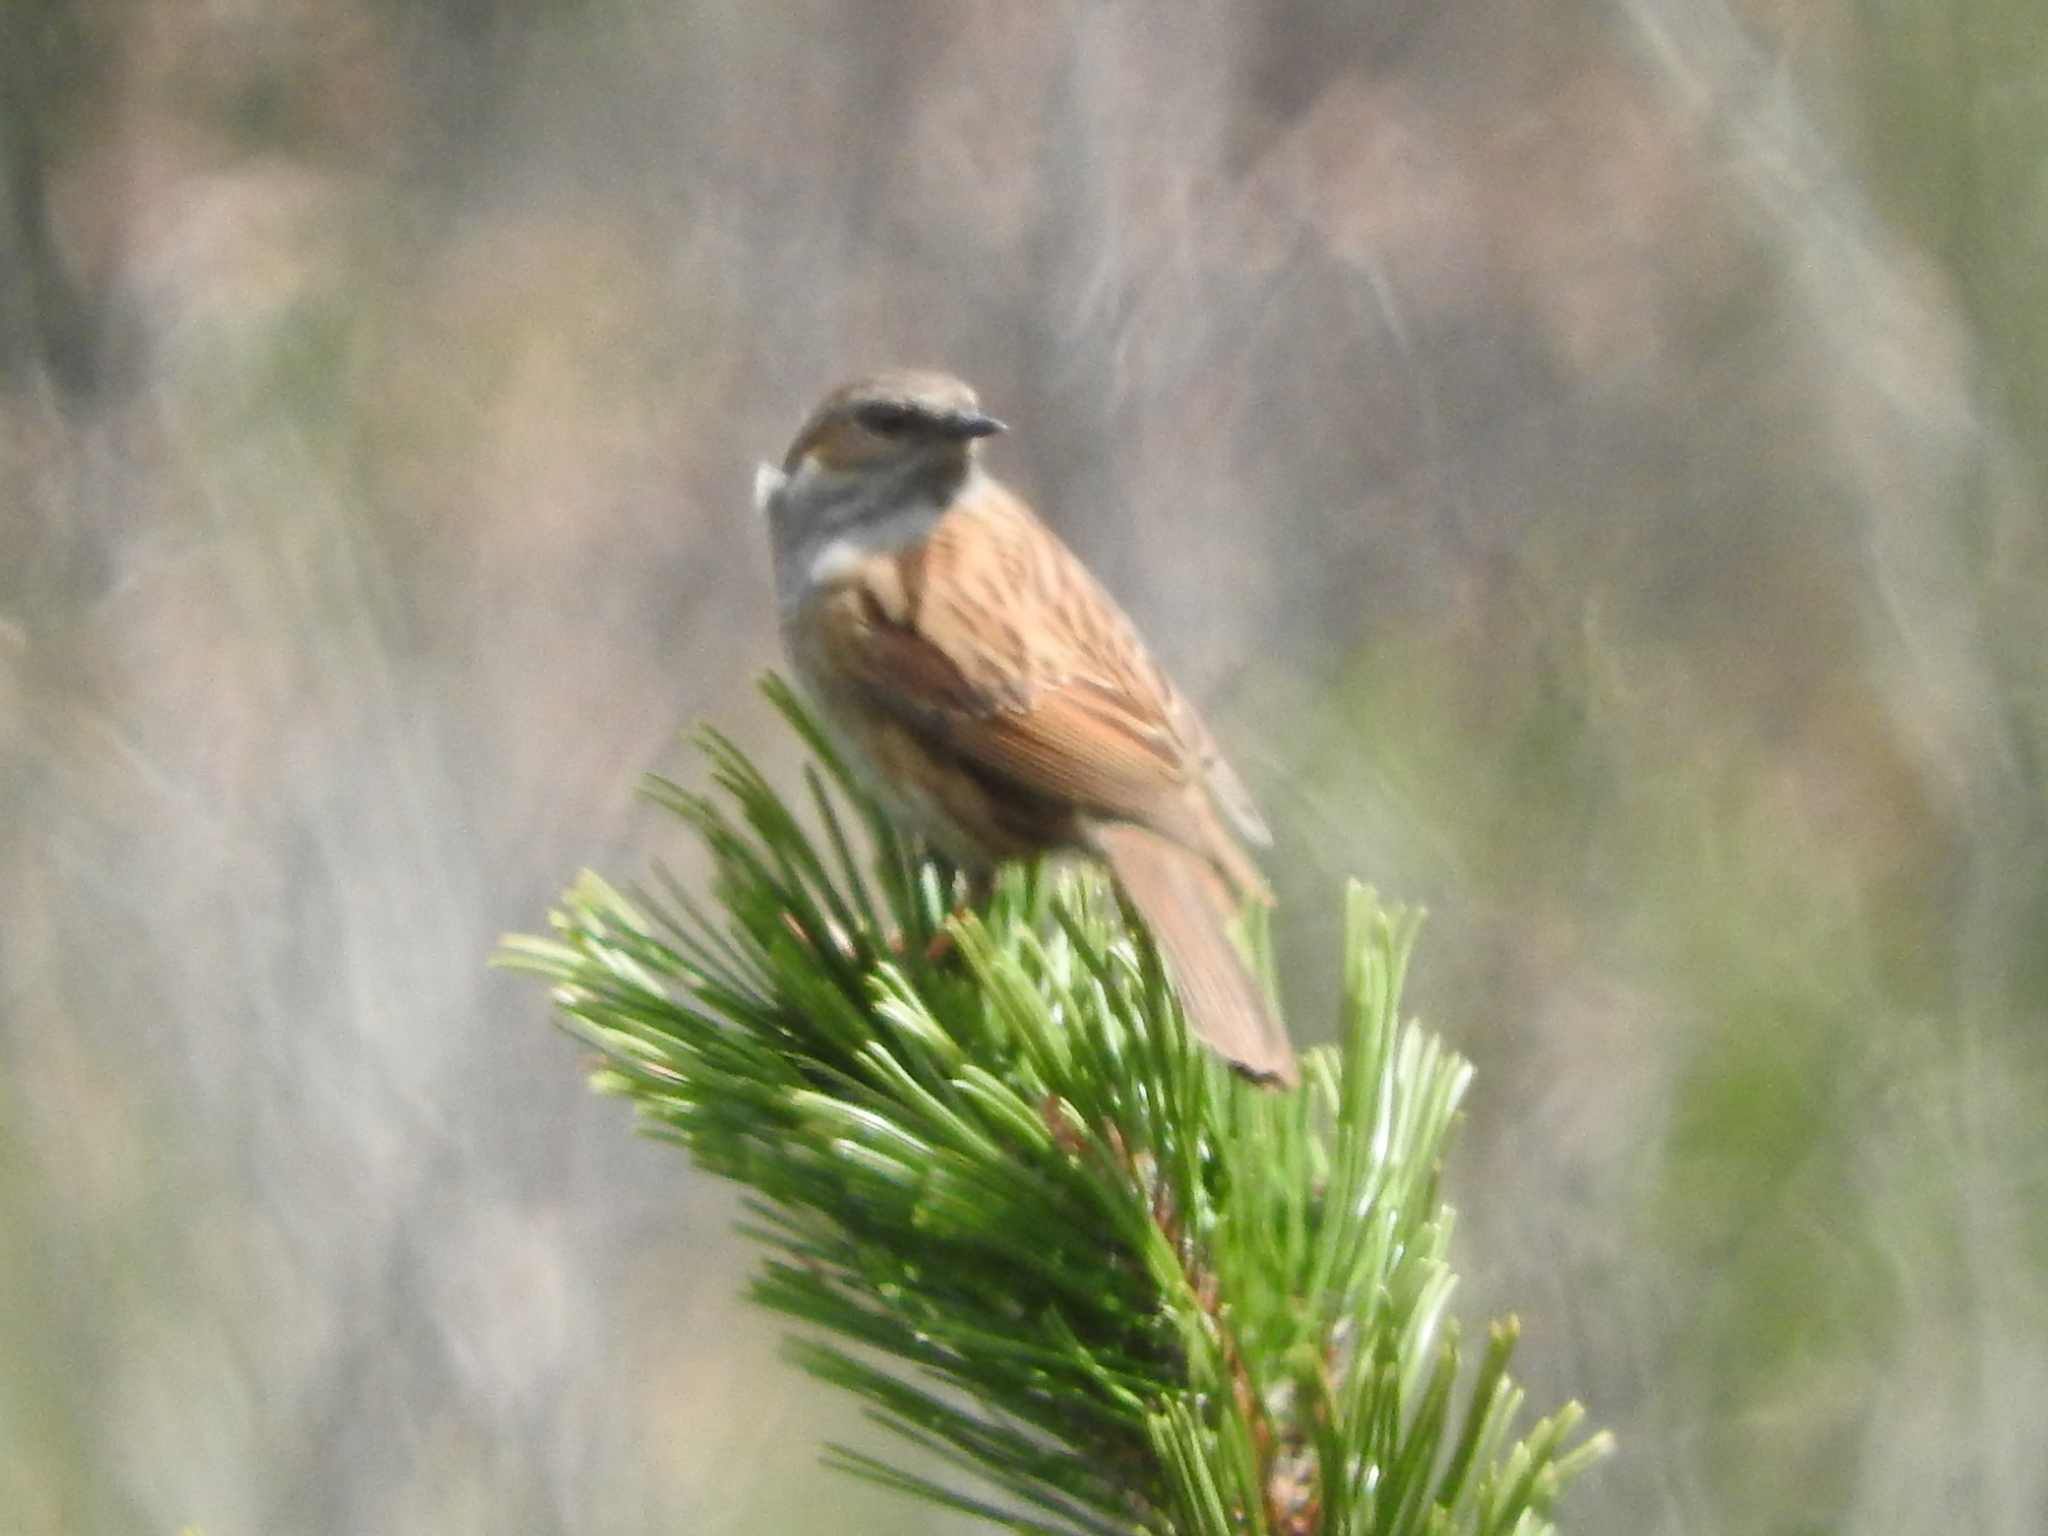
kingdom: Animalia
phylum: Chordata
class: Aves
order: Passeriformes
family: Prunellidae
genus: Prunella
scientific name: Prunella modularis
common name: Dunnock
